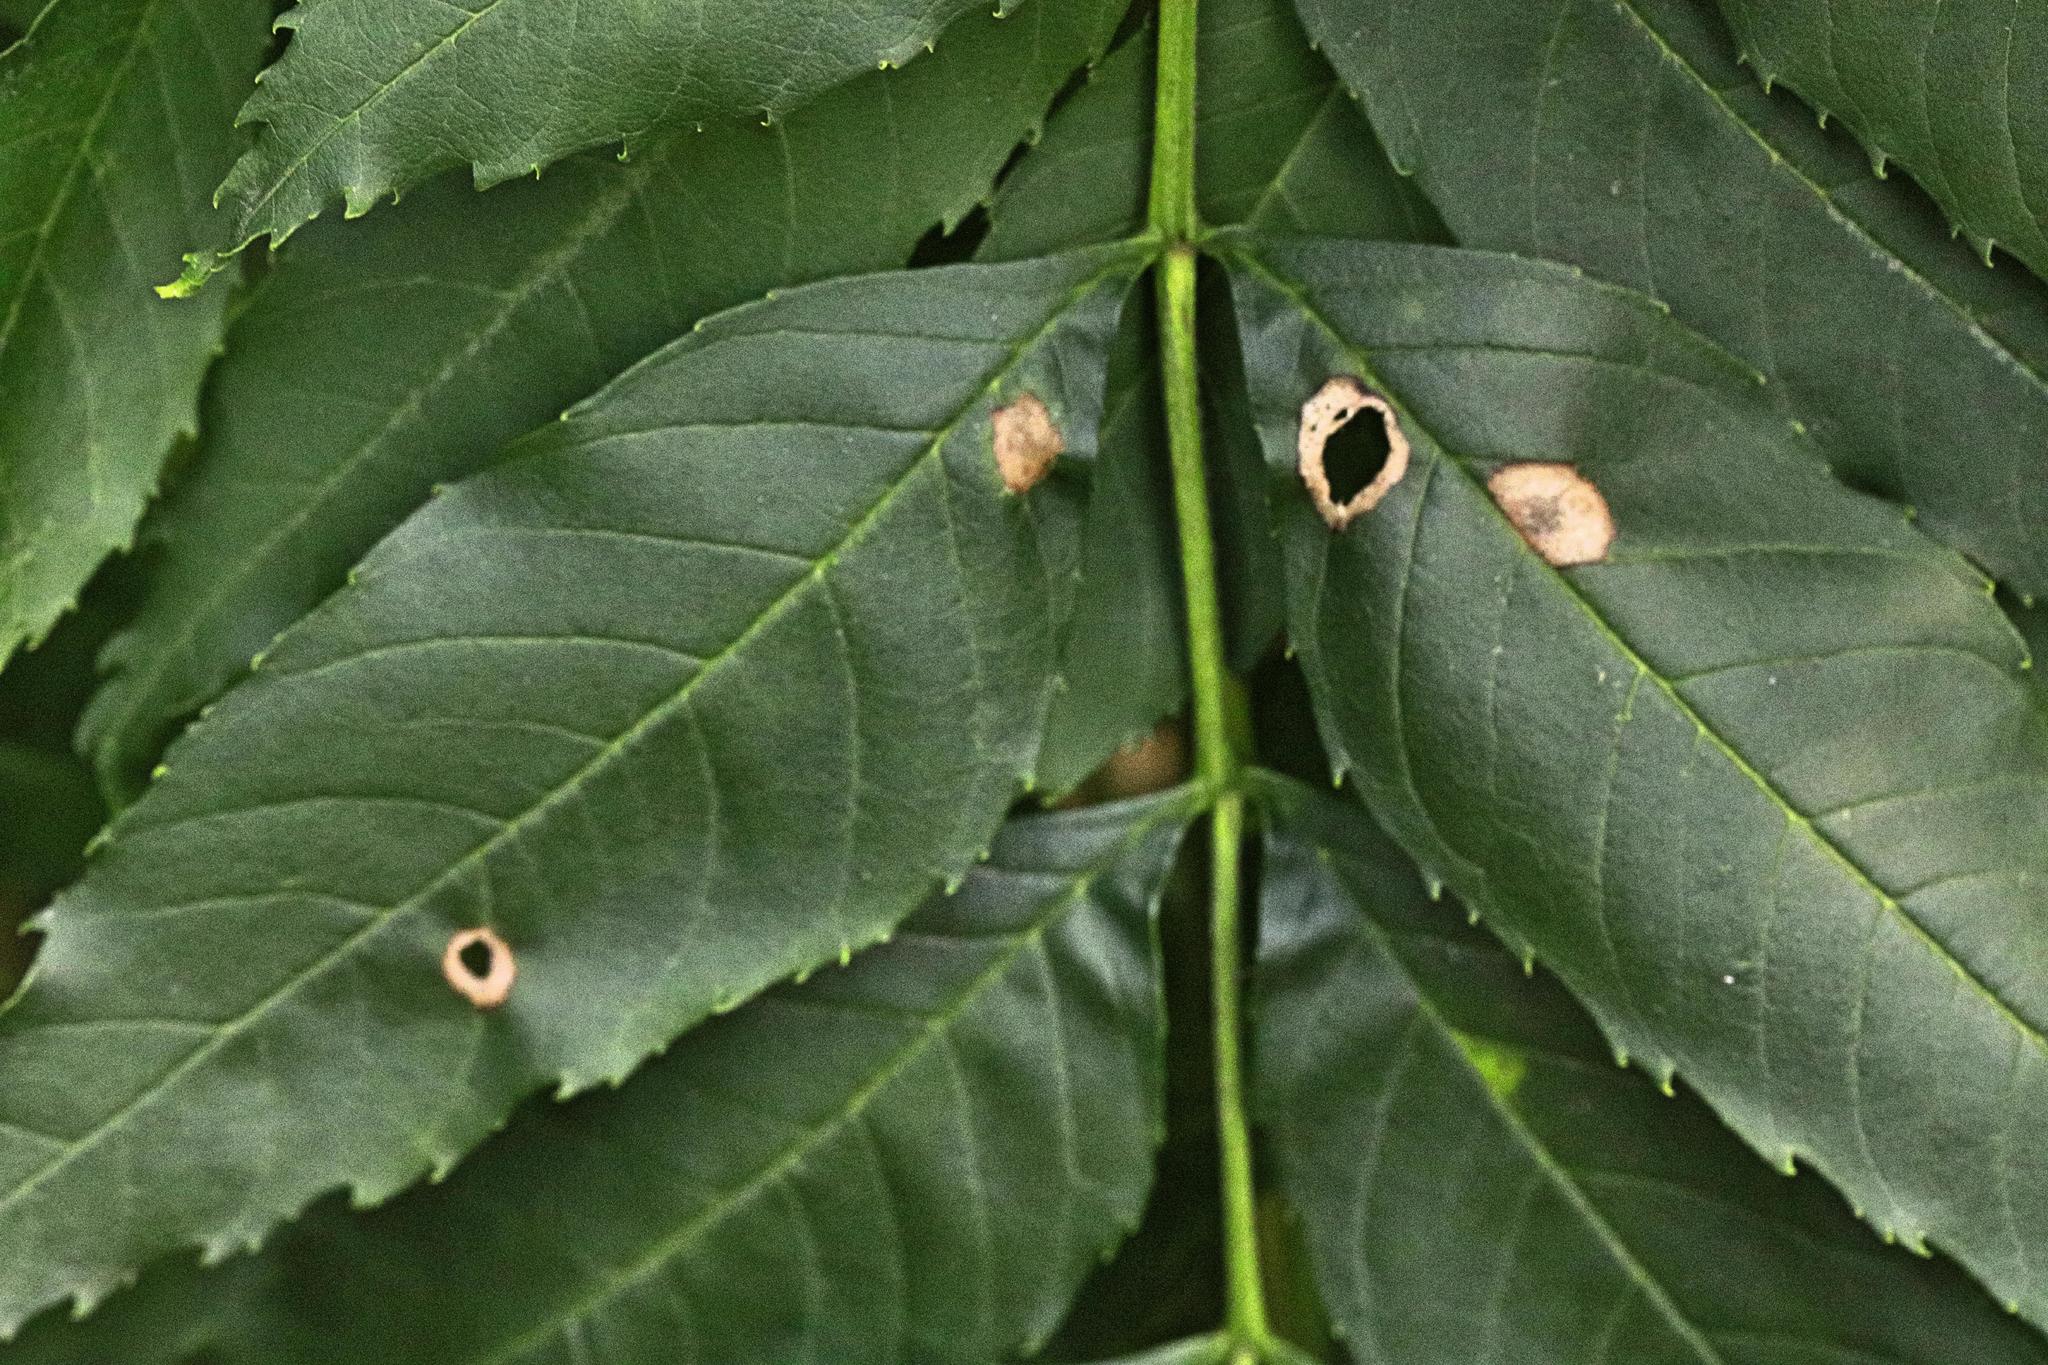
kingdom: Plantae
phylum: Tracheophyta
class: Magnoliopsida
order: Lamiales
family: Oleaceae
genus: Fraxinus
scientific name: Fraxinus excelsior
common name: European ash
